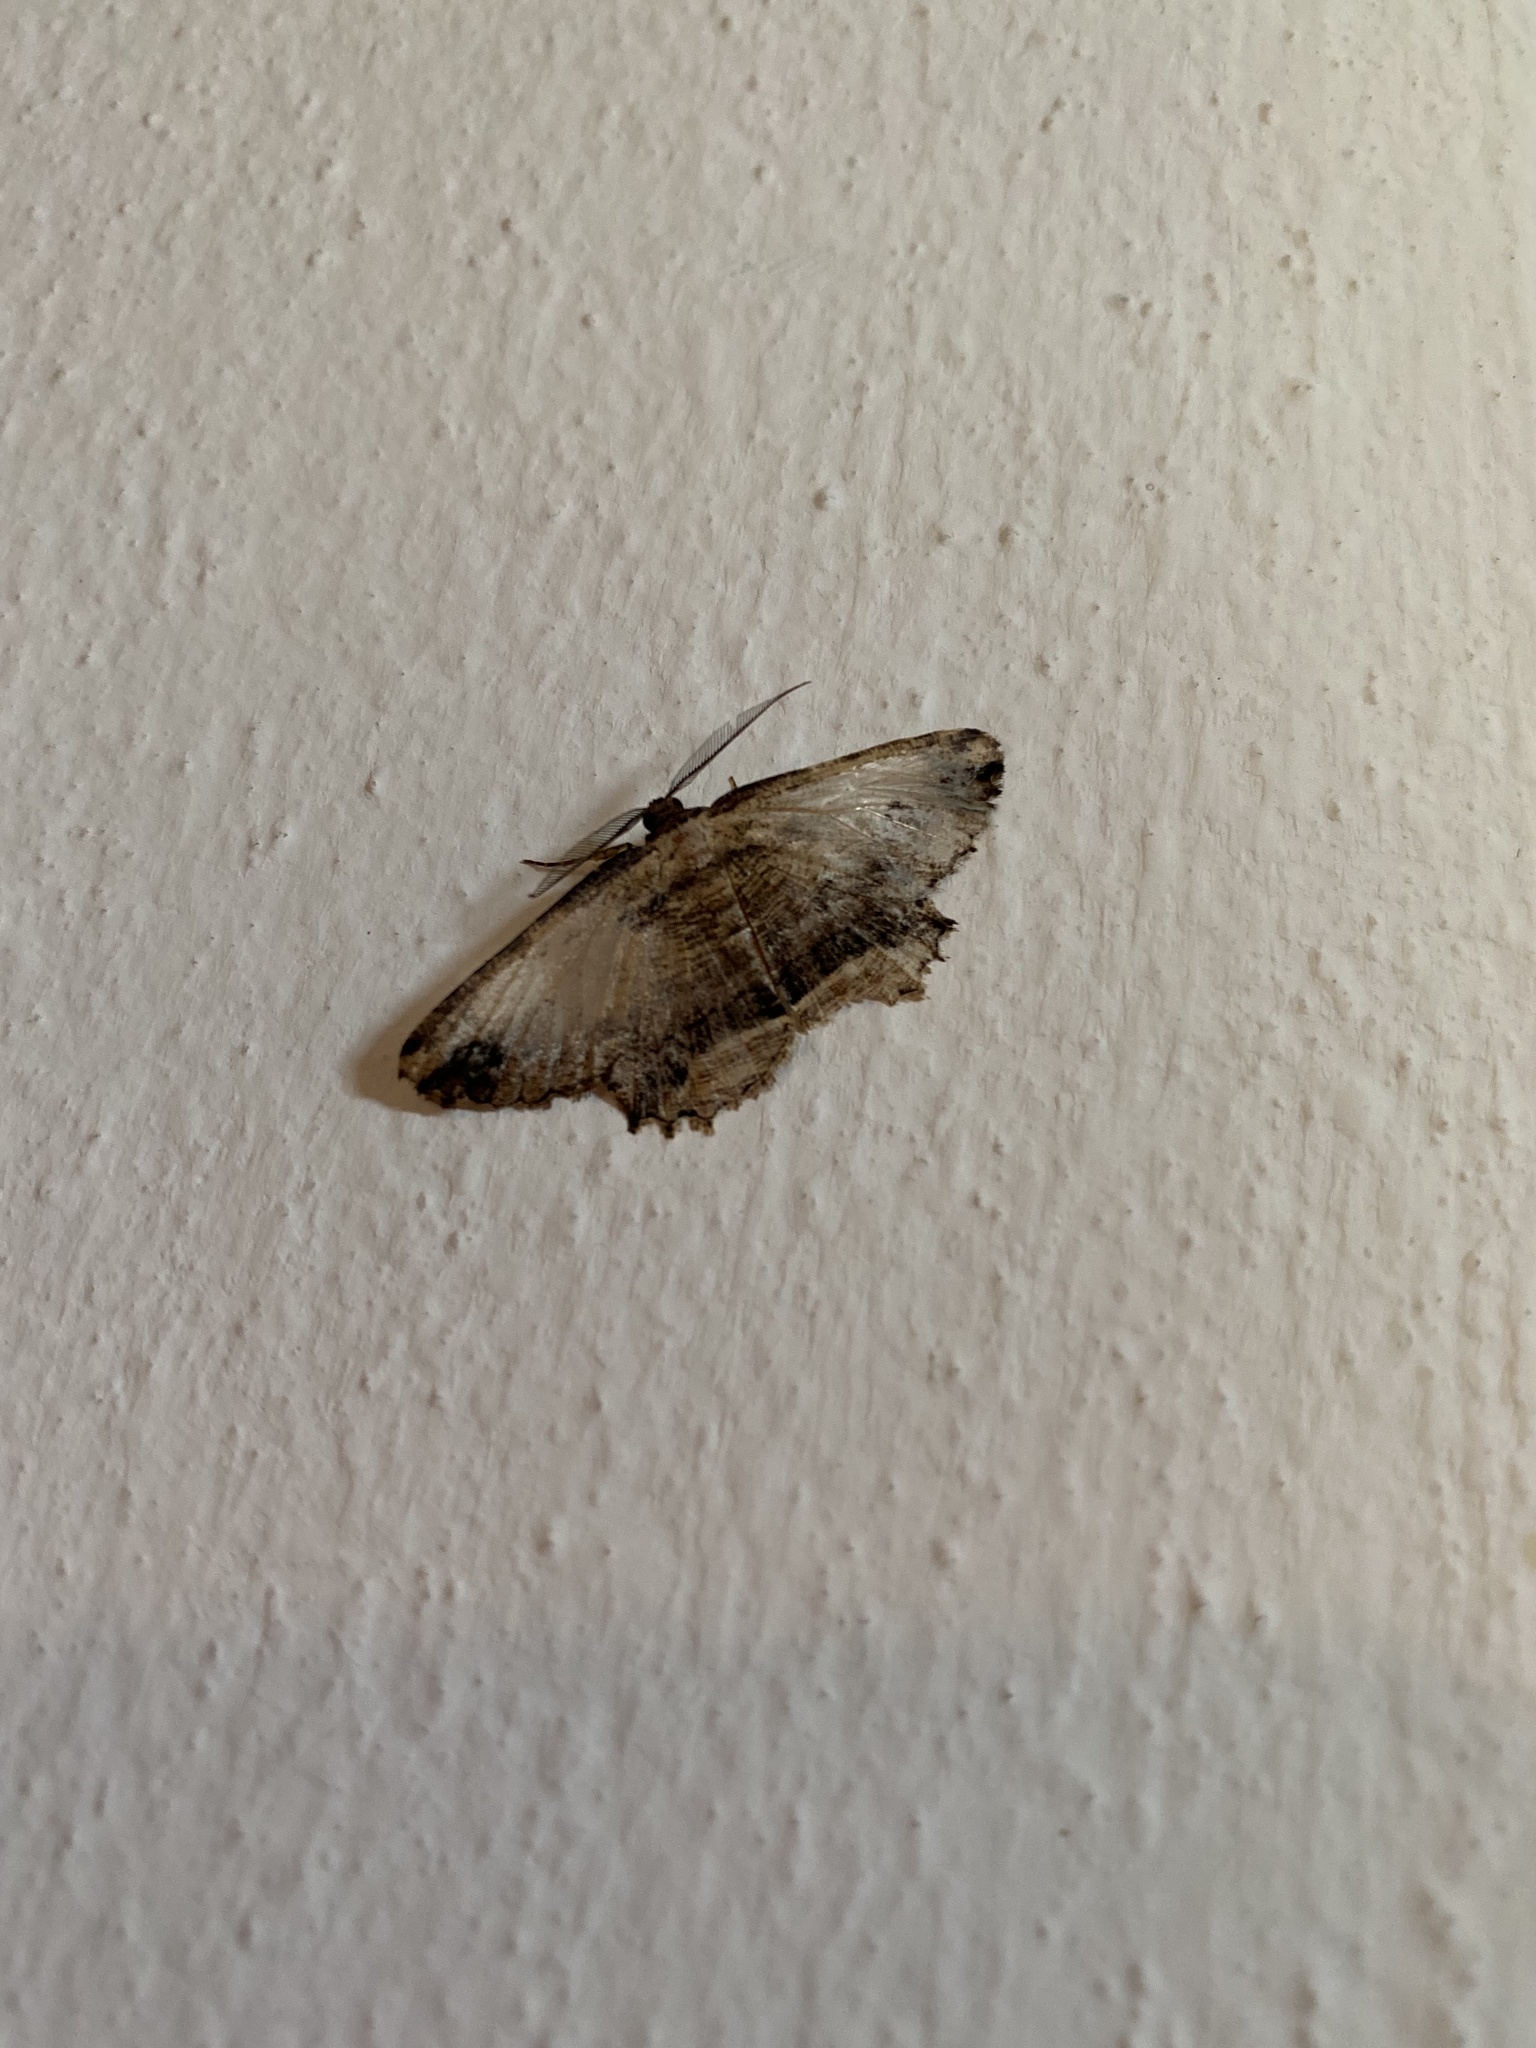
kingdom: Animalia
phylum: Arthropoda
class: Insecta
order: Lepidoptera
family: Geometridae
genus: Menophra
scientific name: Menophra abruptaria
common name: Waved umber
